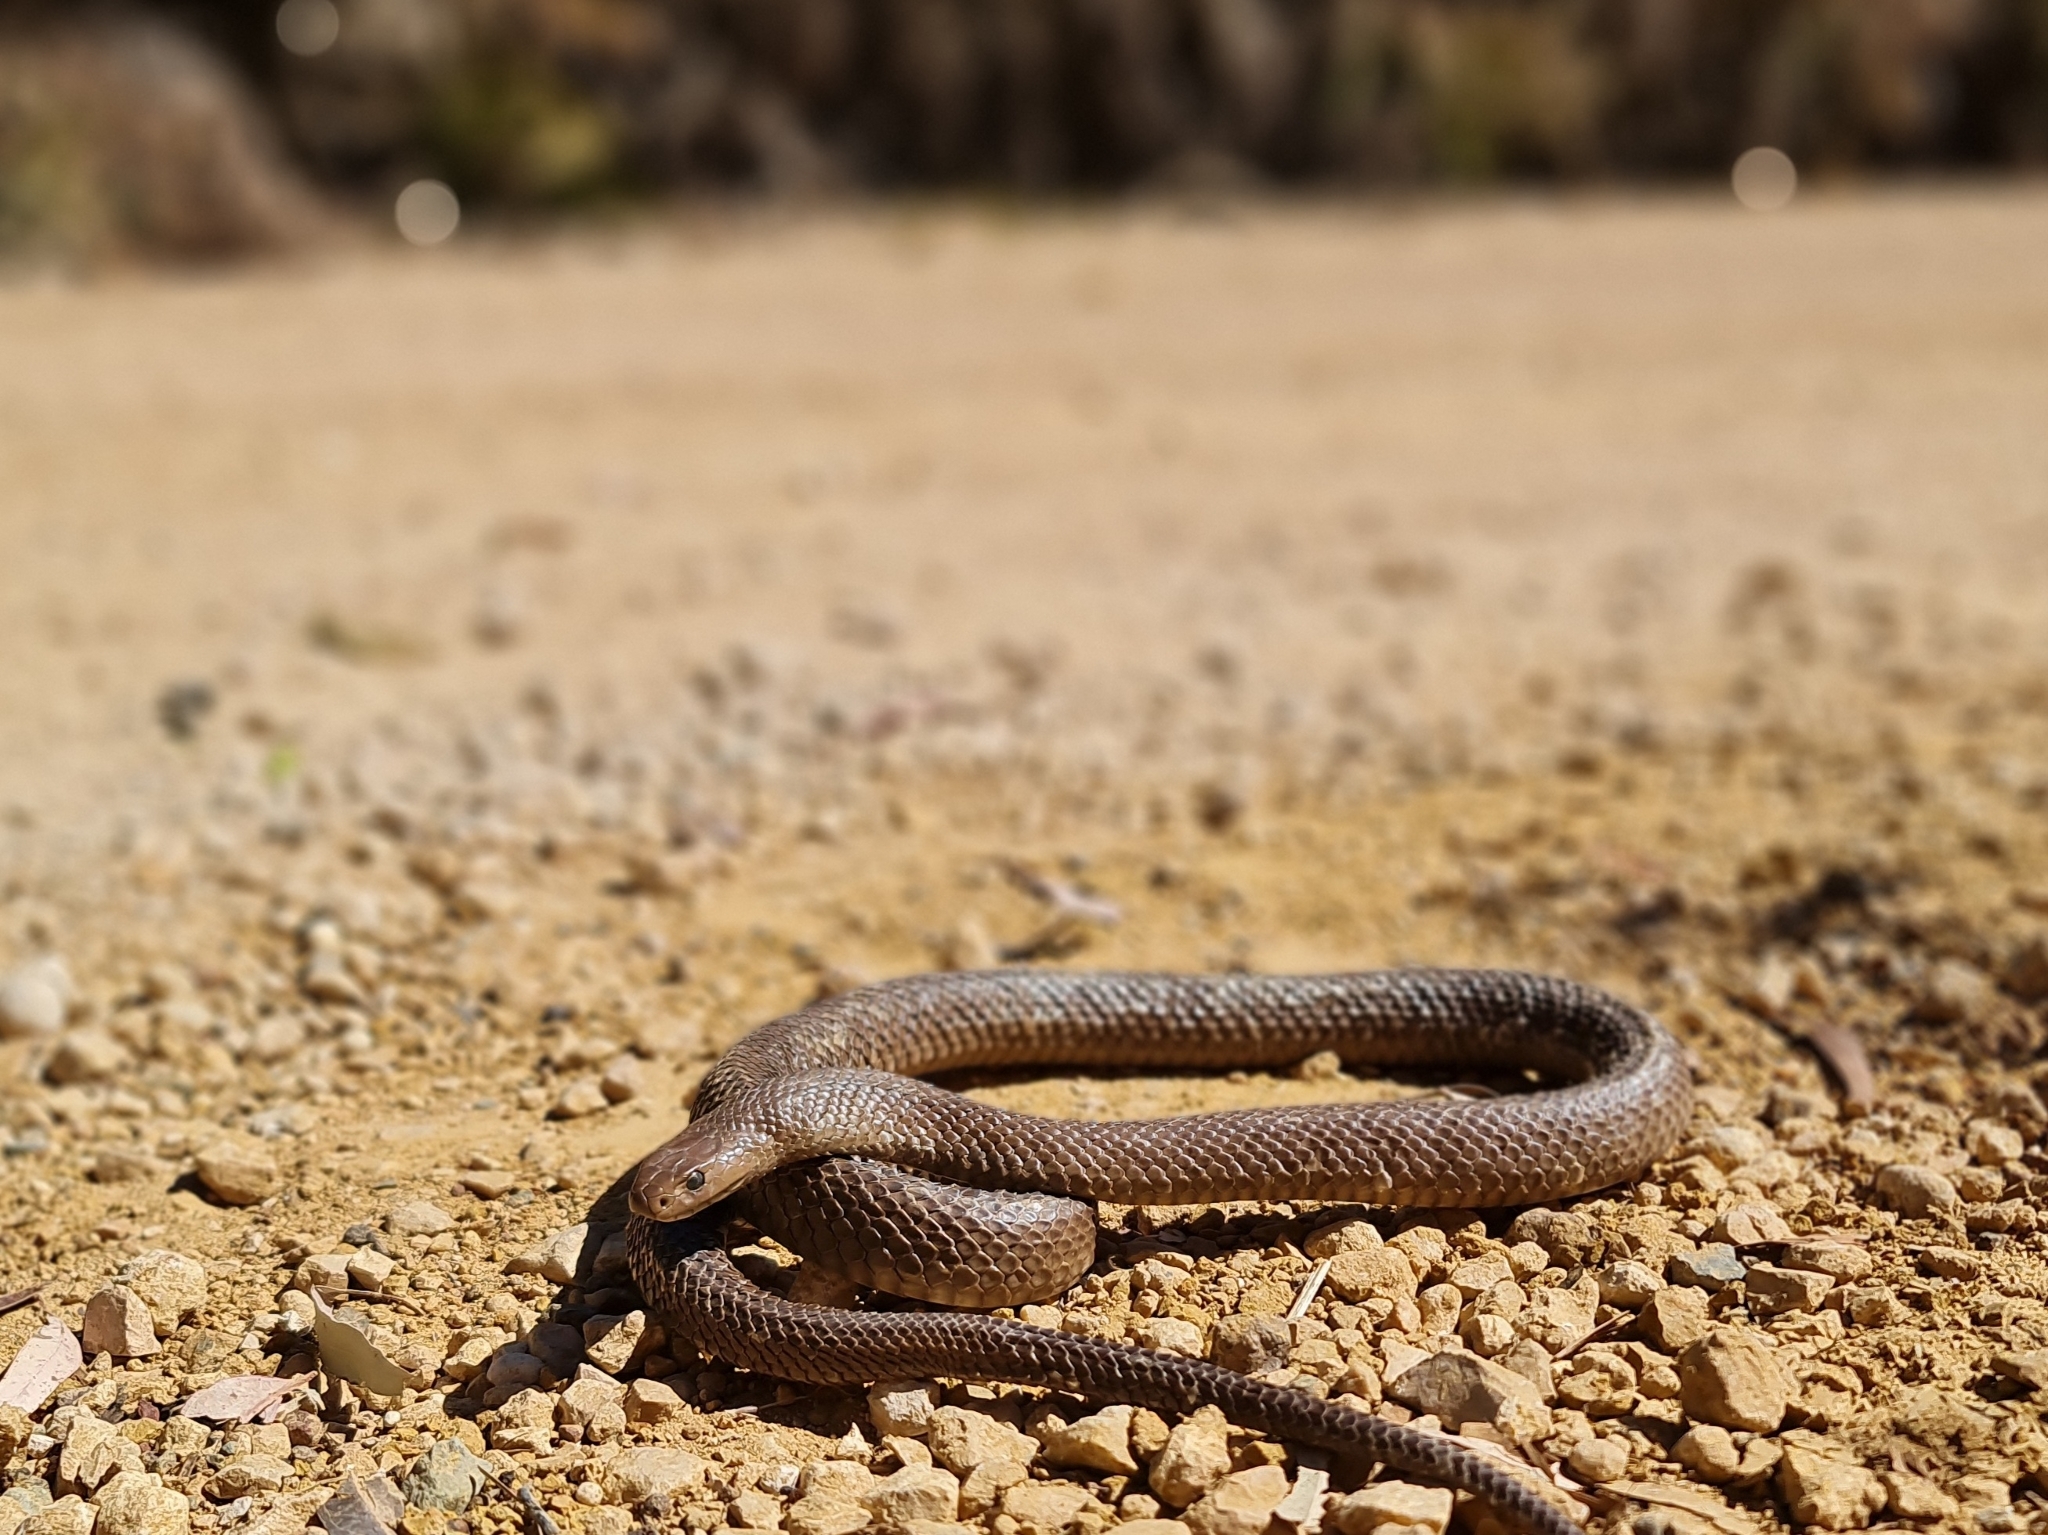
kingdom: Animalia
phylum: Chordata
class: Squamata
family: Elapidae
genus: Pseudonaja
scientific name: Pseudonaja textilis
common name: Eastern brown snake
